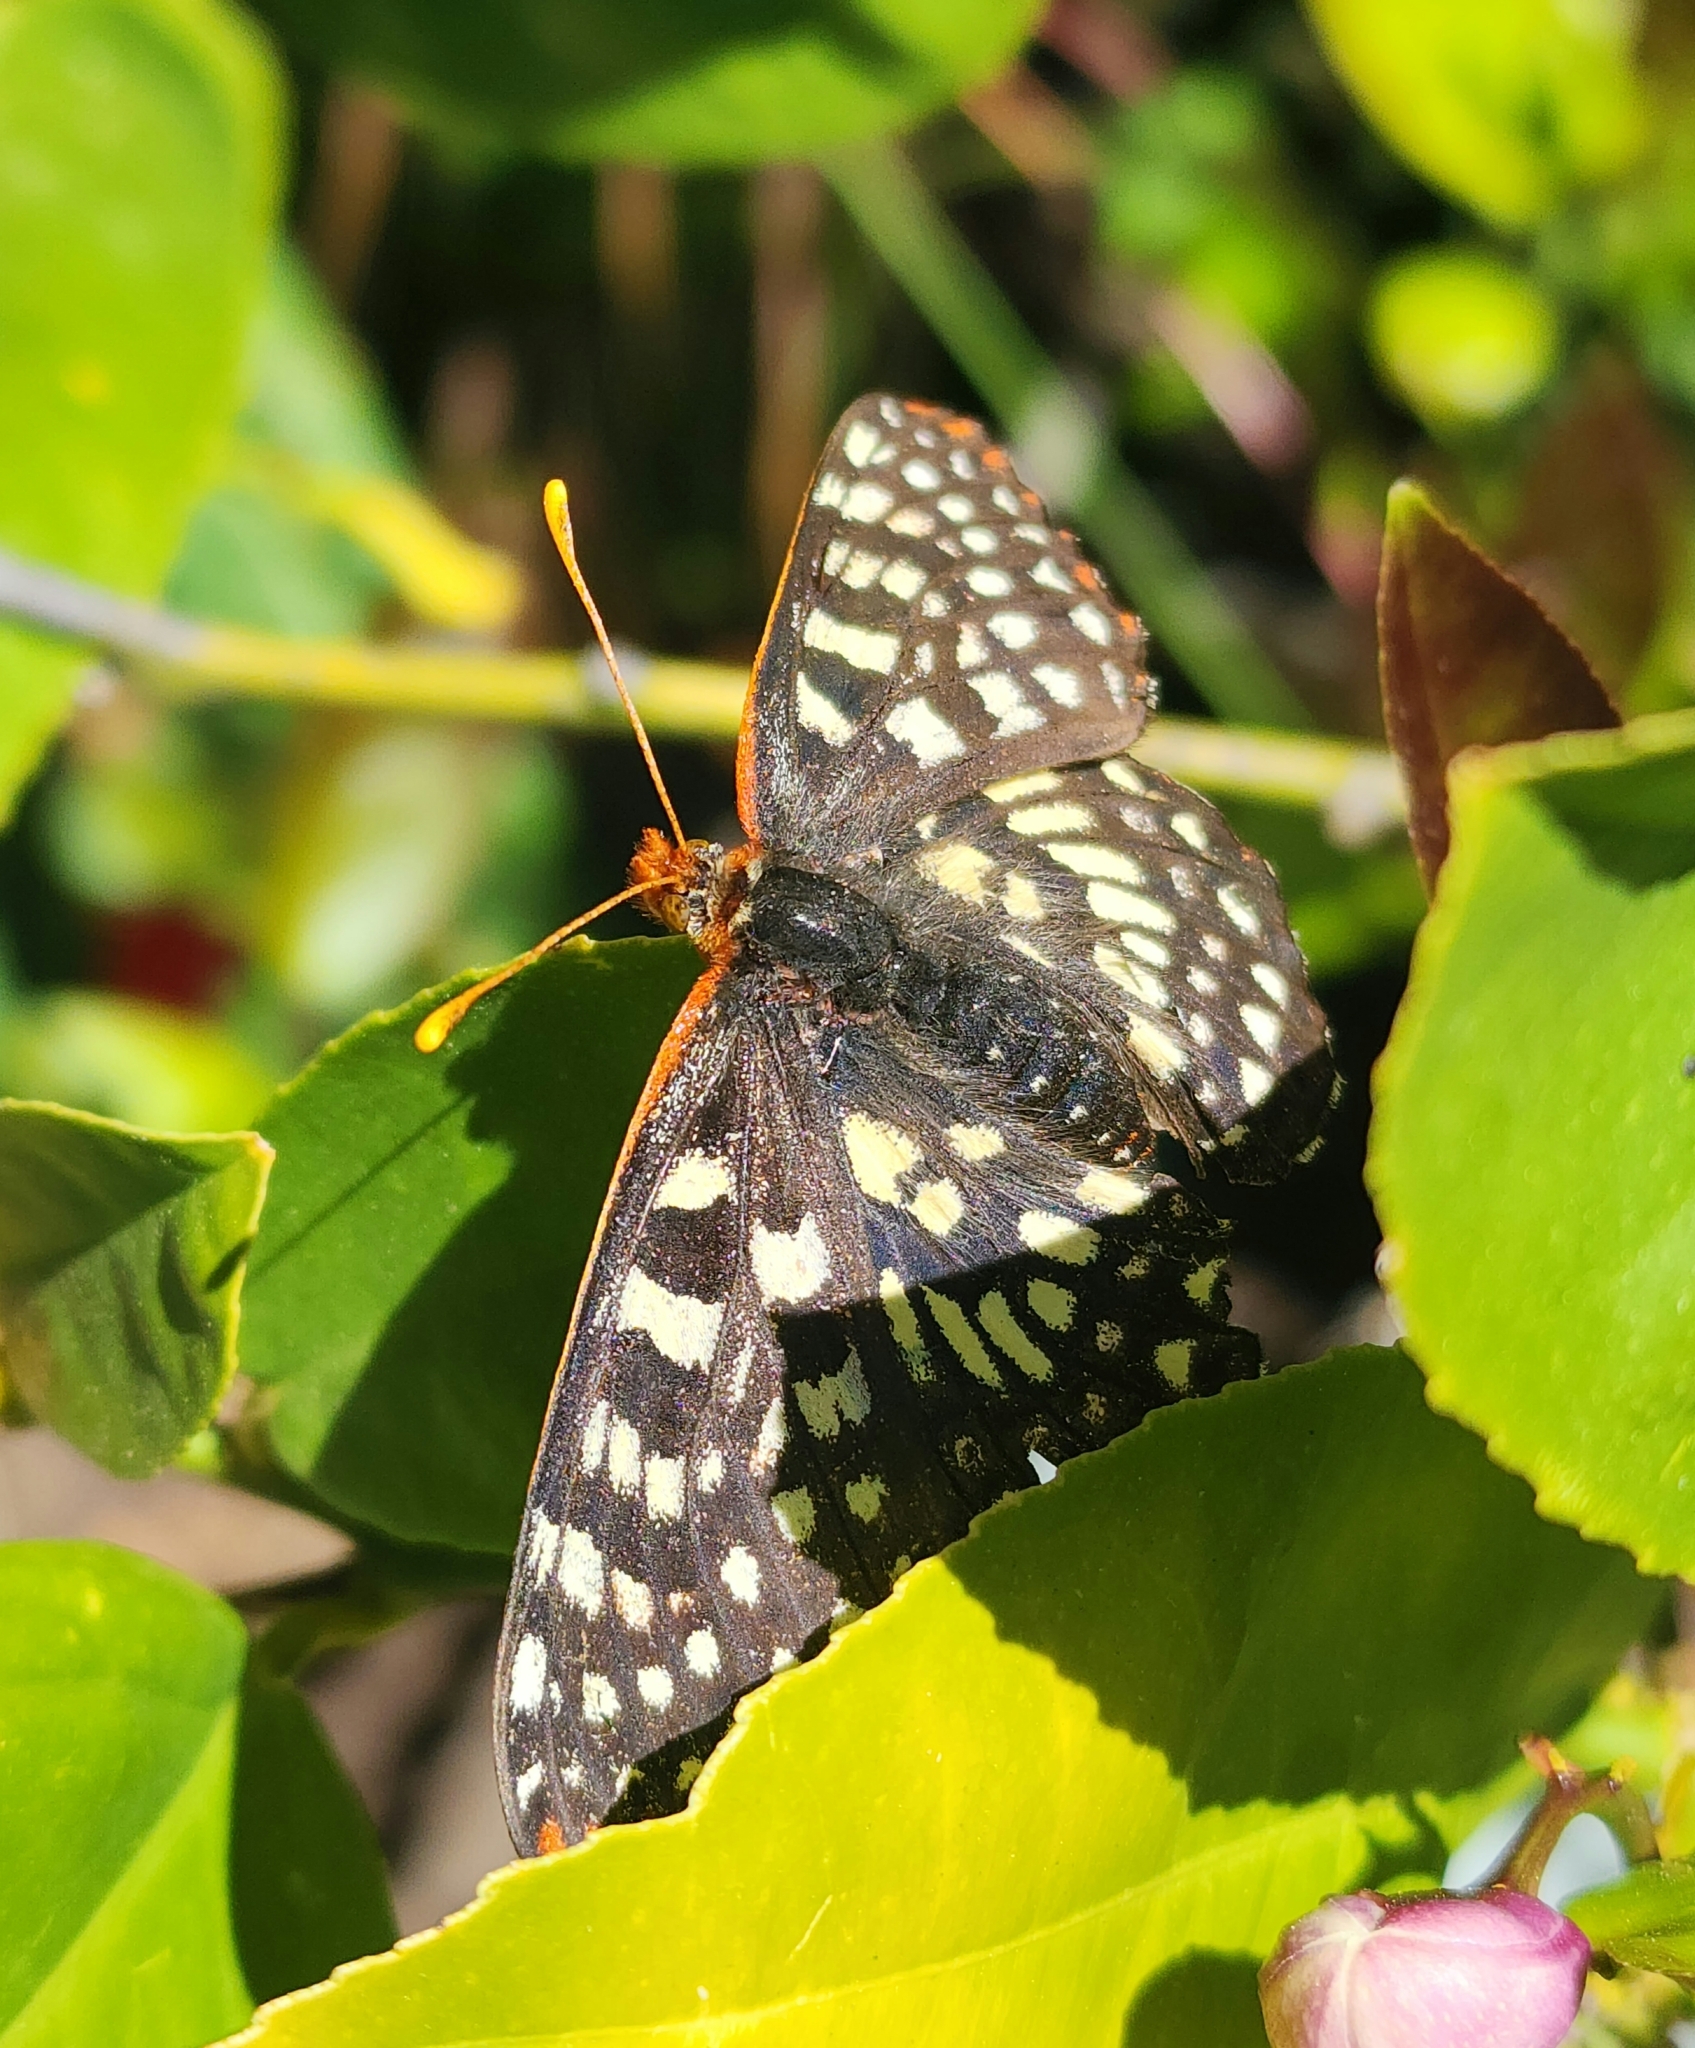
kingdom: Animalia
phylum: Arthropoda
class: Insecta
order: Lepidoptera
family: Nymphalidae
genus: Occidryas
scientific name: Occidryas chalcedona
